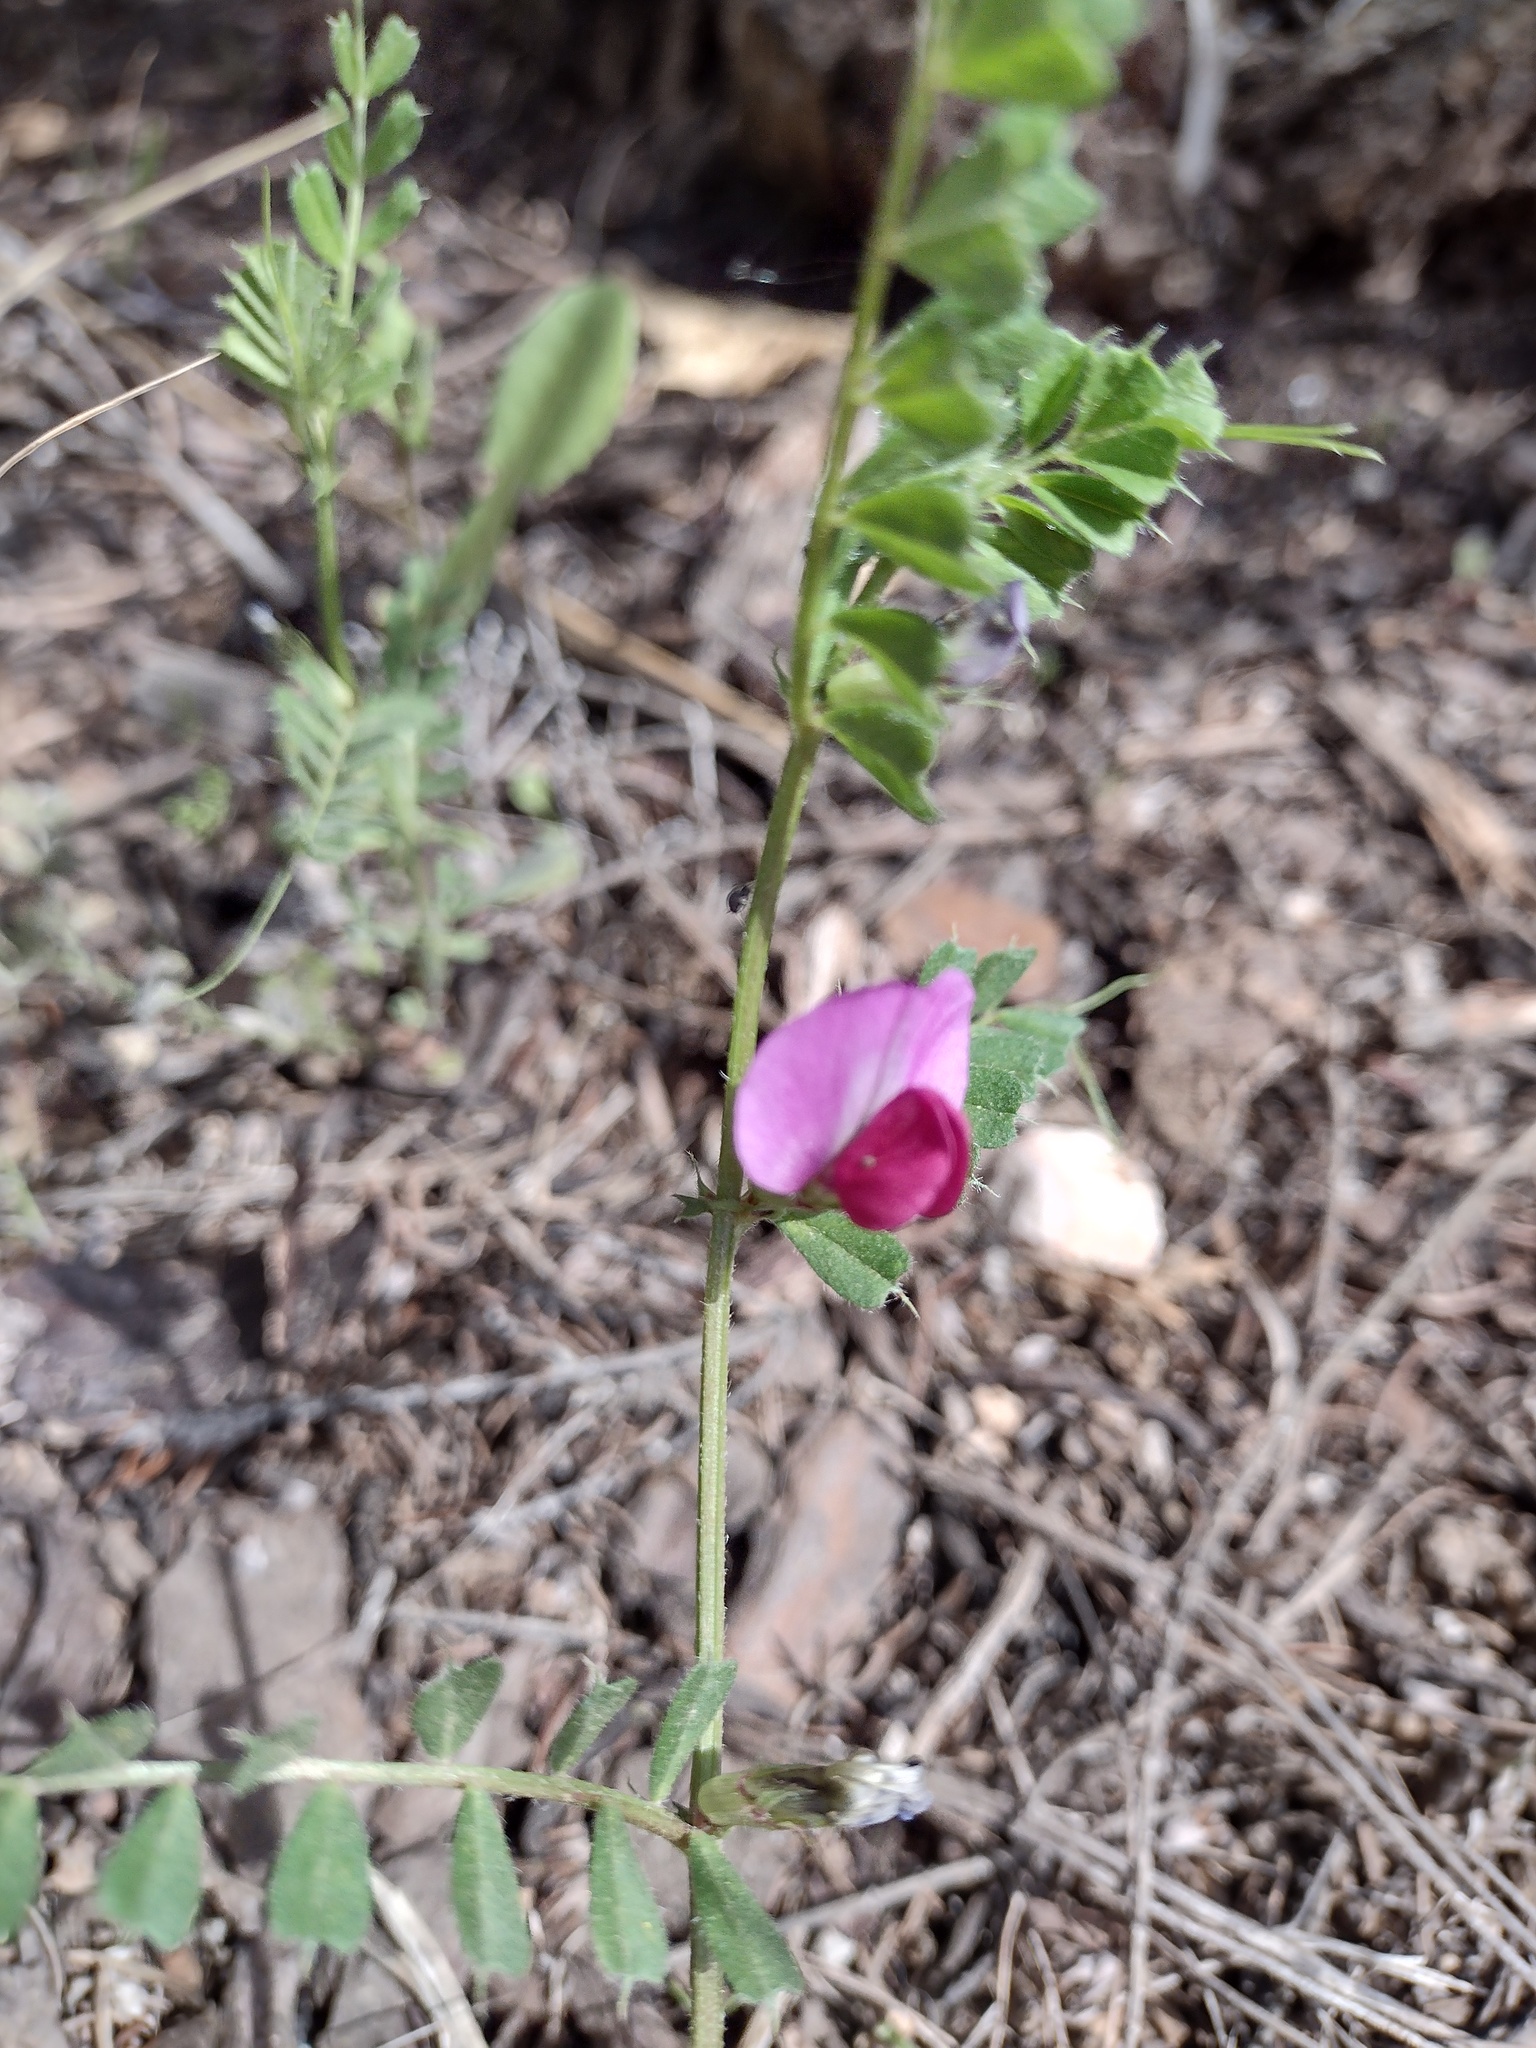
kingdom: Plantae
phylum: Tracheophyta
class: Magnoliopsida
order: Fabales
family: Fabaceae
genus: Vicia
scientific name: Vicia sativa
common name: Garden vetch
